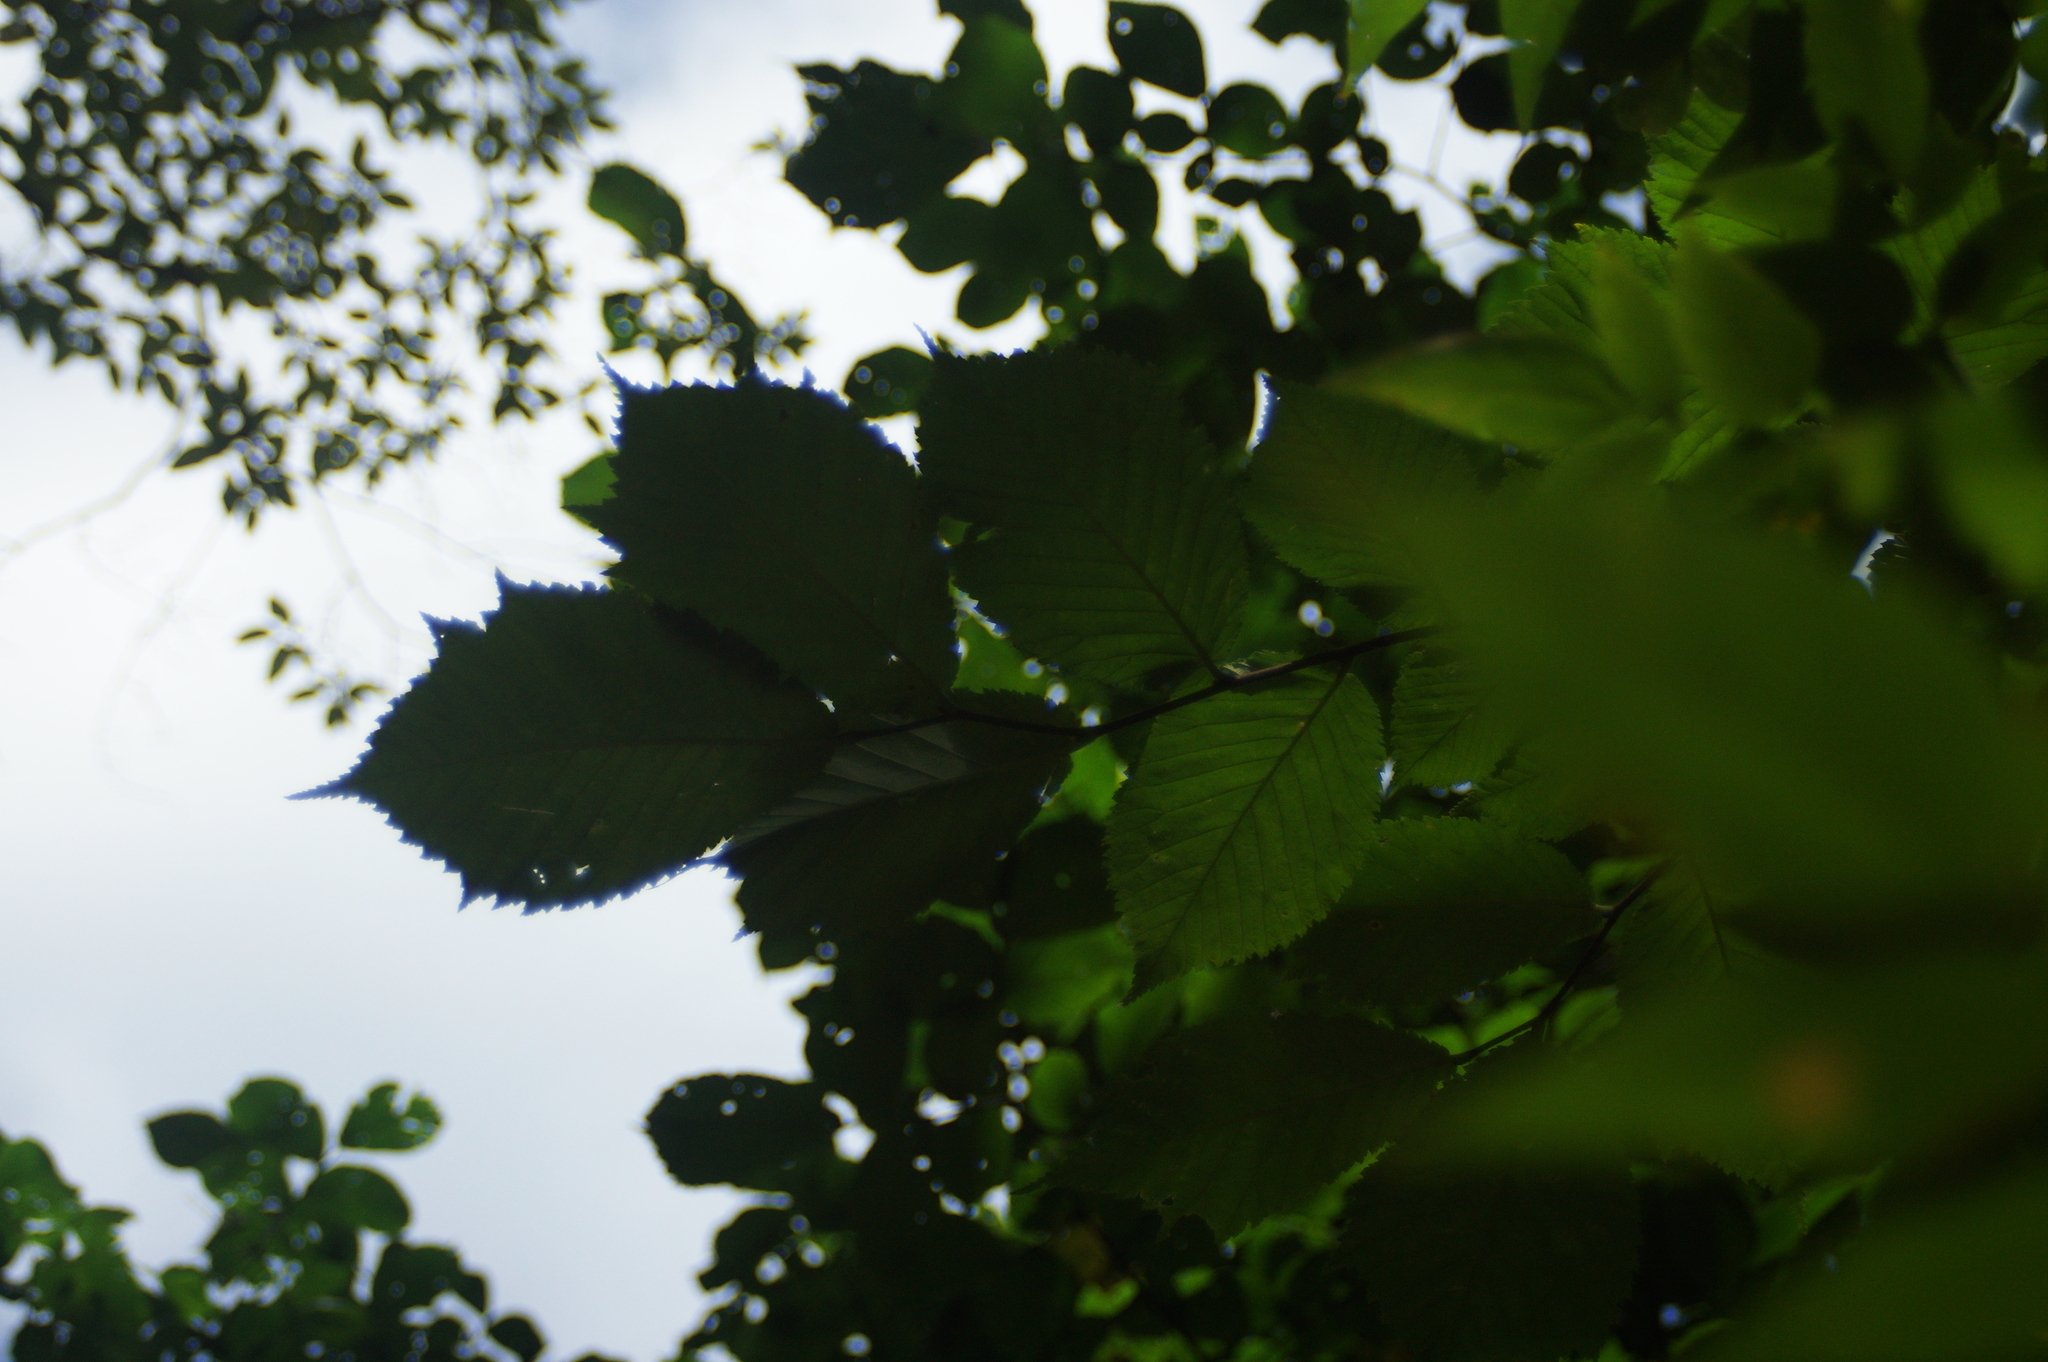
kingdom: Plantae
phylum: Tracheophyta
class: Magnoliopsida
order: Rosales
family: Ulmaceae
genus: Ulmus
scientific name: Ulmus glabra
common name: Wych elm
